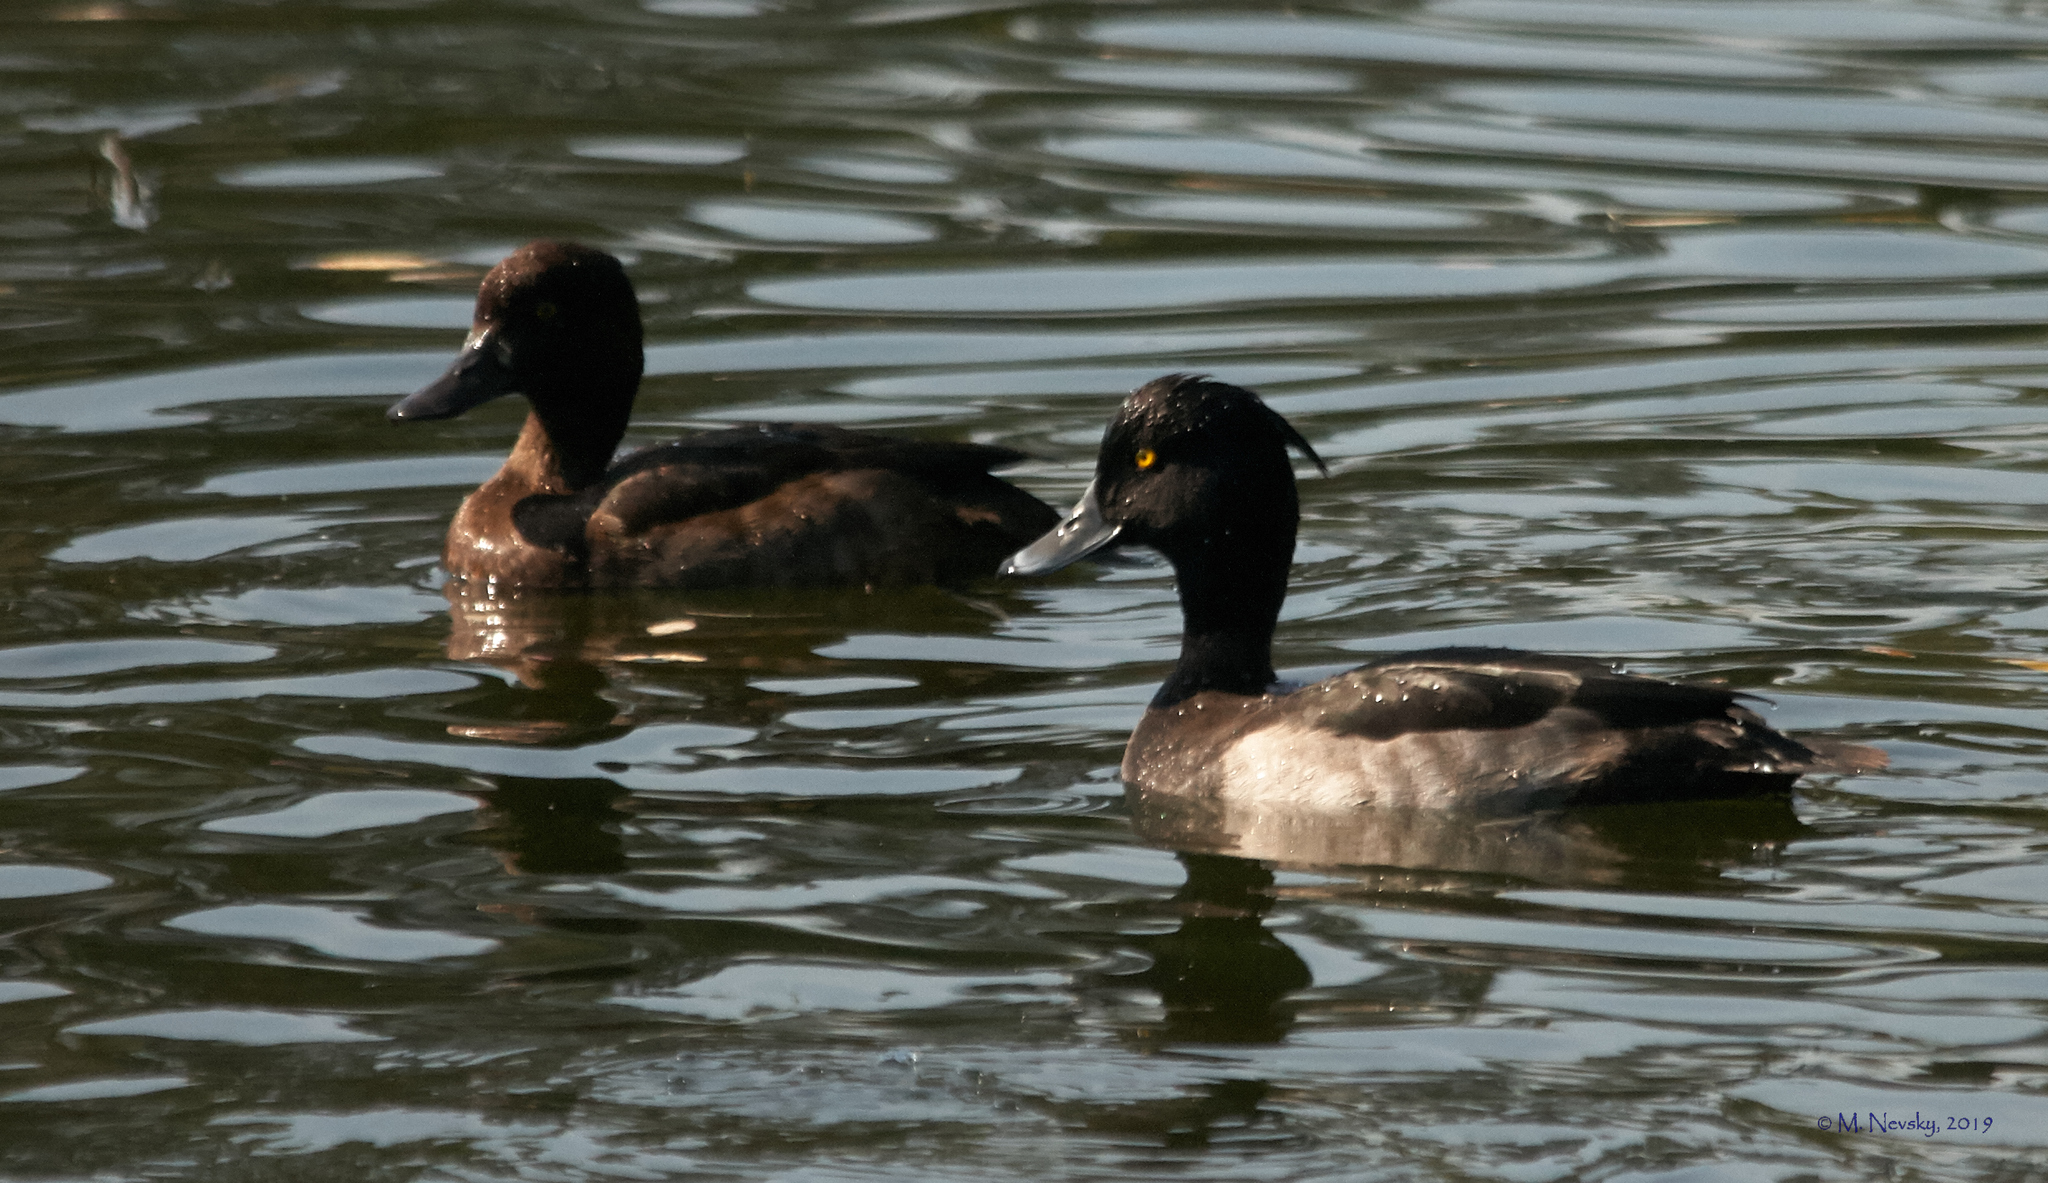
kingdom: Animalia
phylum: Chordata
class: Aves
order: Anseriformes
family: Anatidae
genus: Aythya
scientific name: Aythya fuligula
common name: Tufted duck
